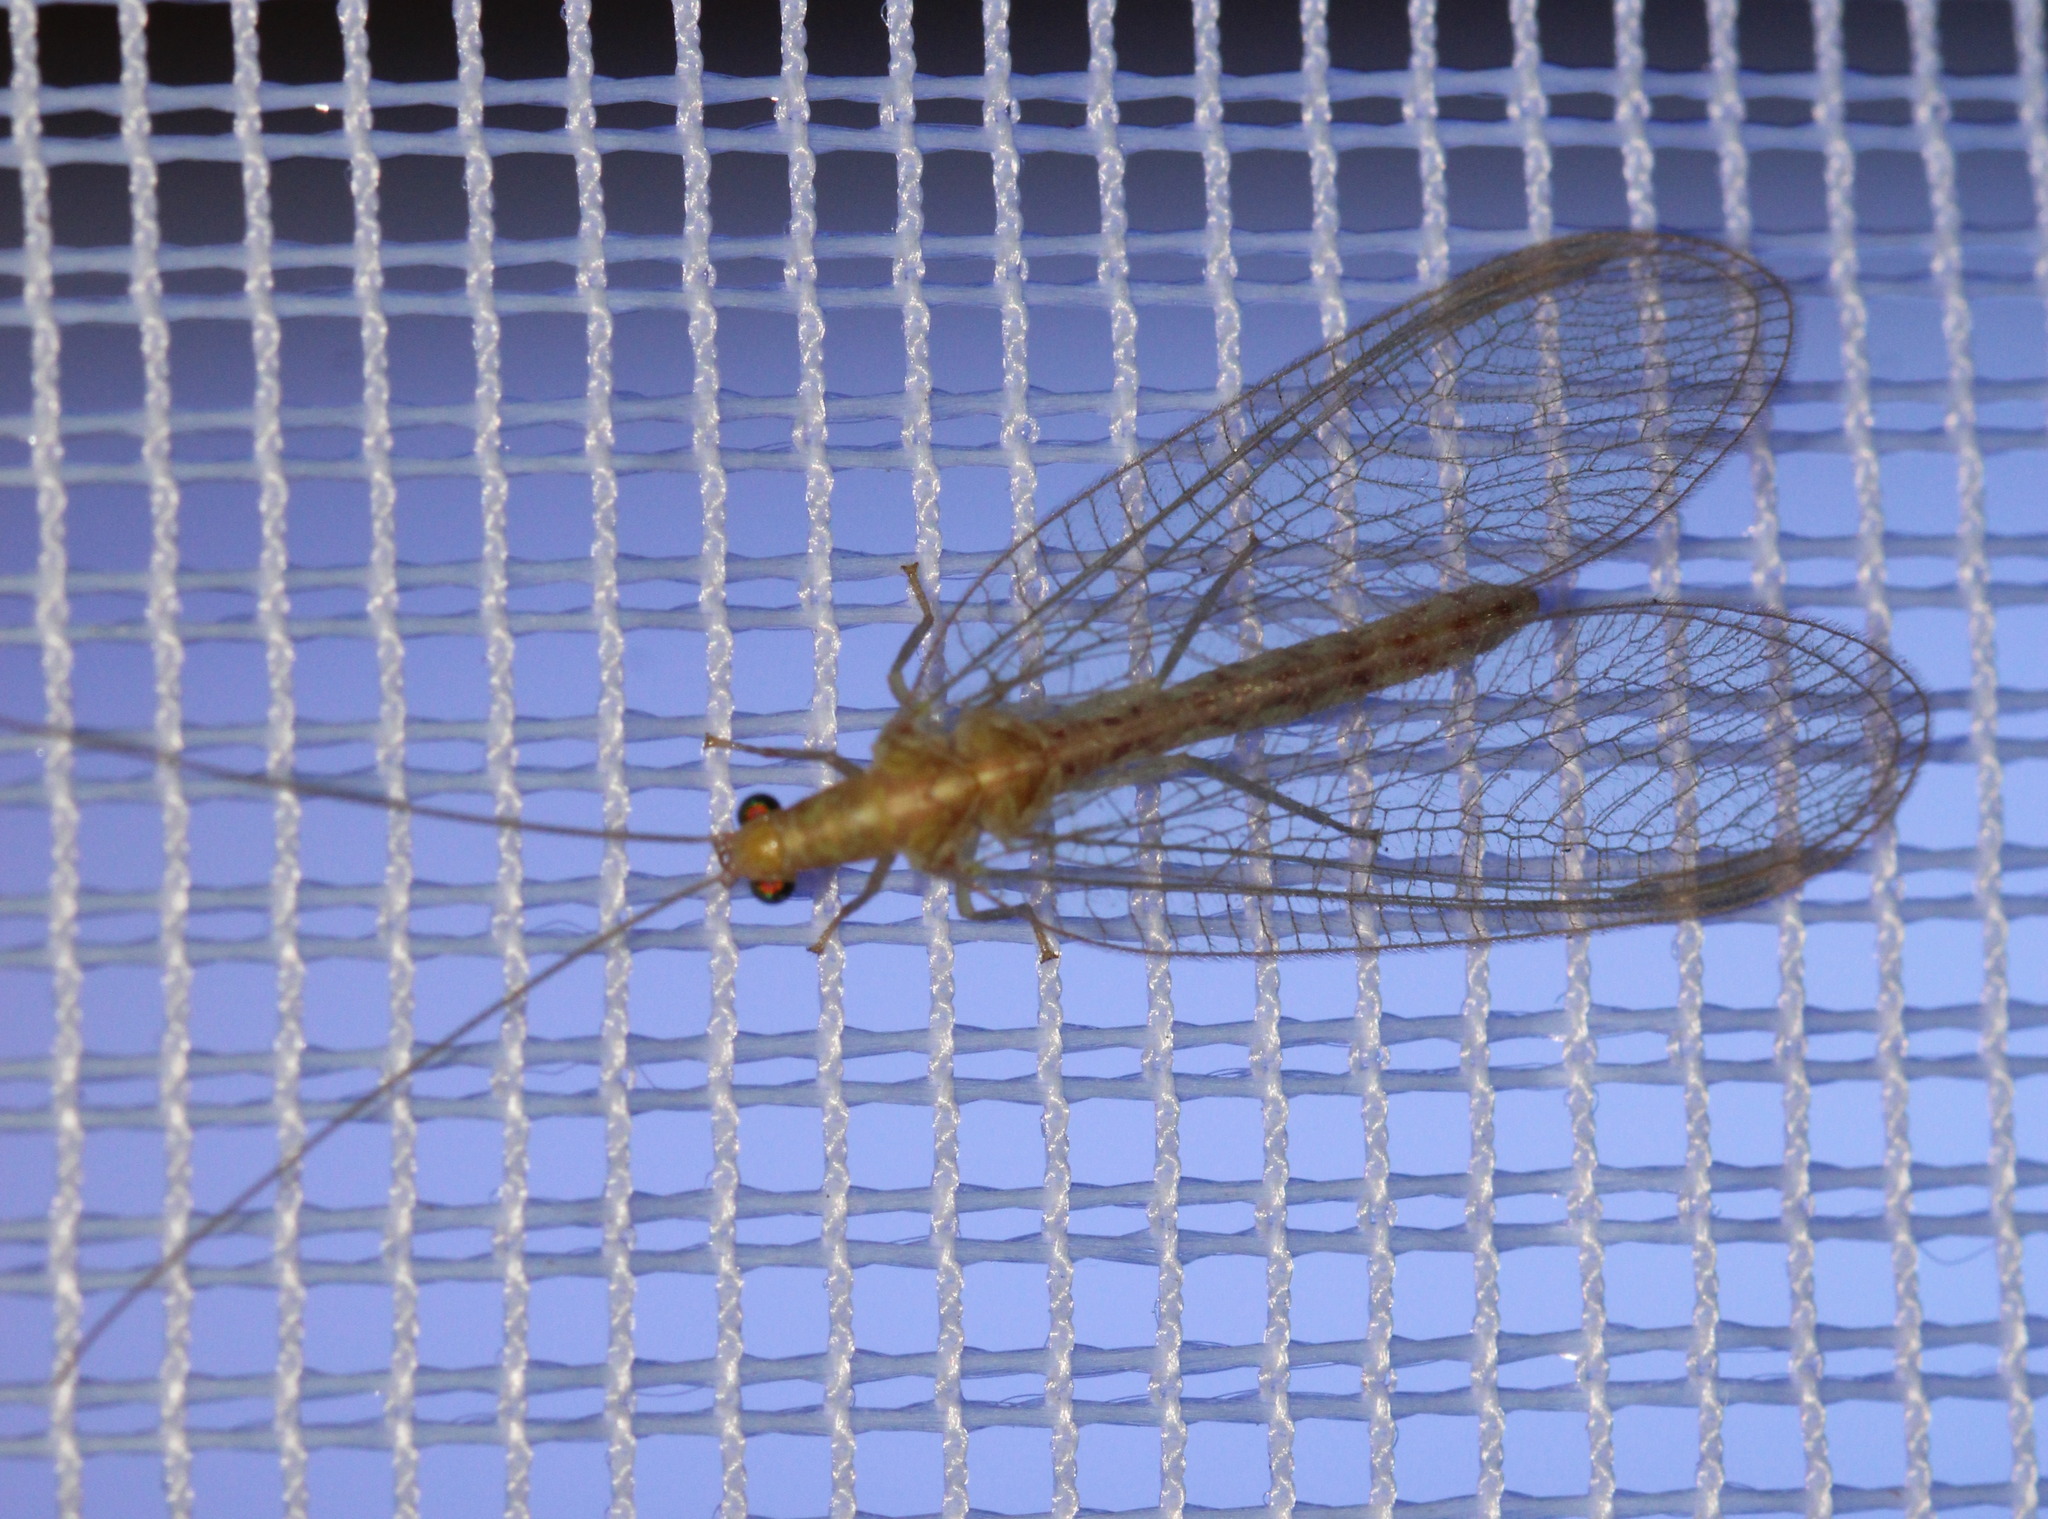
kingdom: Animalia
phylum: Arthropoda
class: Insecta
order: Neuroptera
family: Chrysopidae
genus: Chrysoperla
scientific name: Chrysoperla
